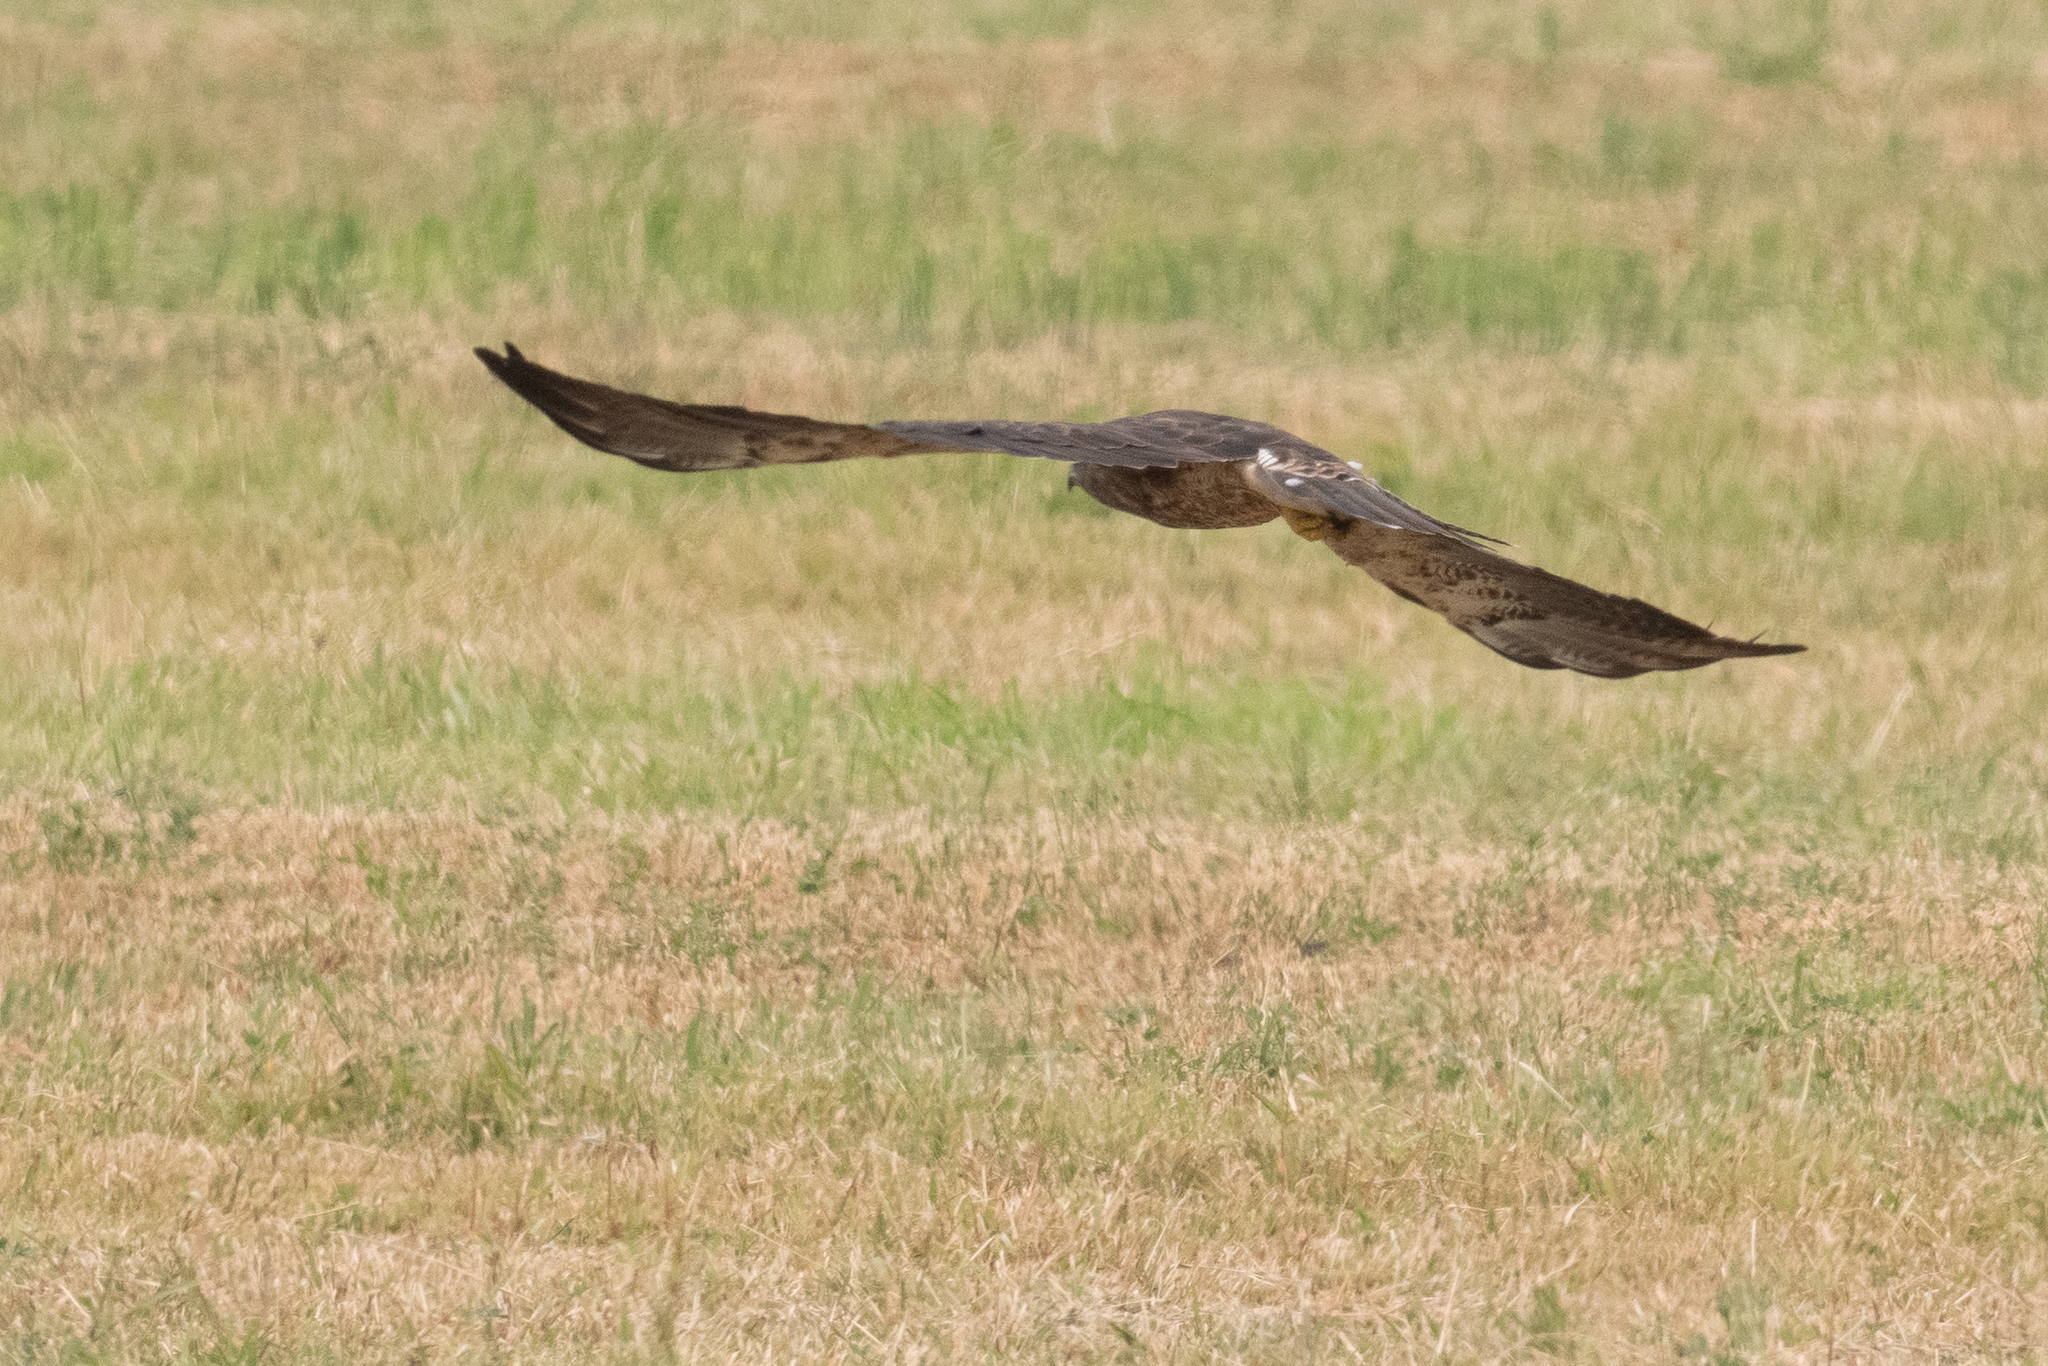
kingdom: Animalia
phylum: Chordata
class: Aves
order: Accipitriformes
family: Accipitridae
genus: Buteo
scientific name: Buteo swainsoni
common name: Swainson's hawk
